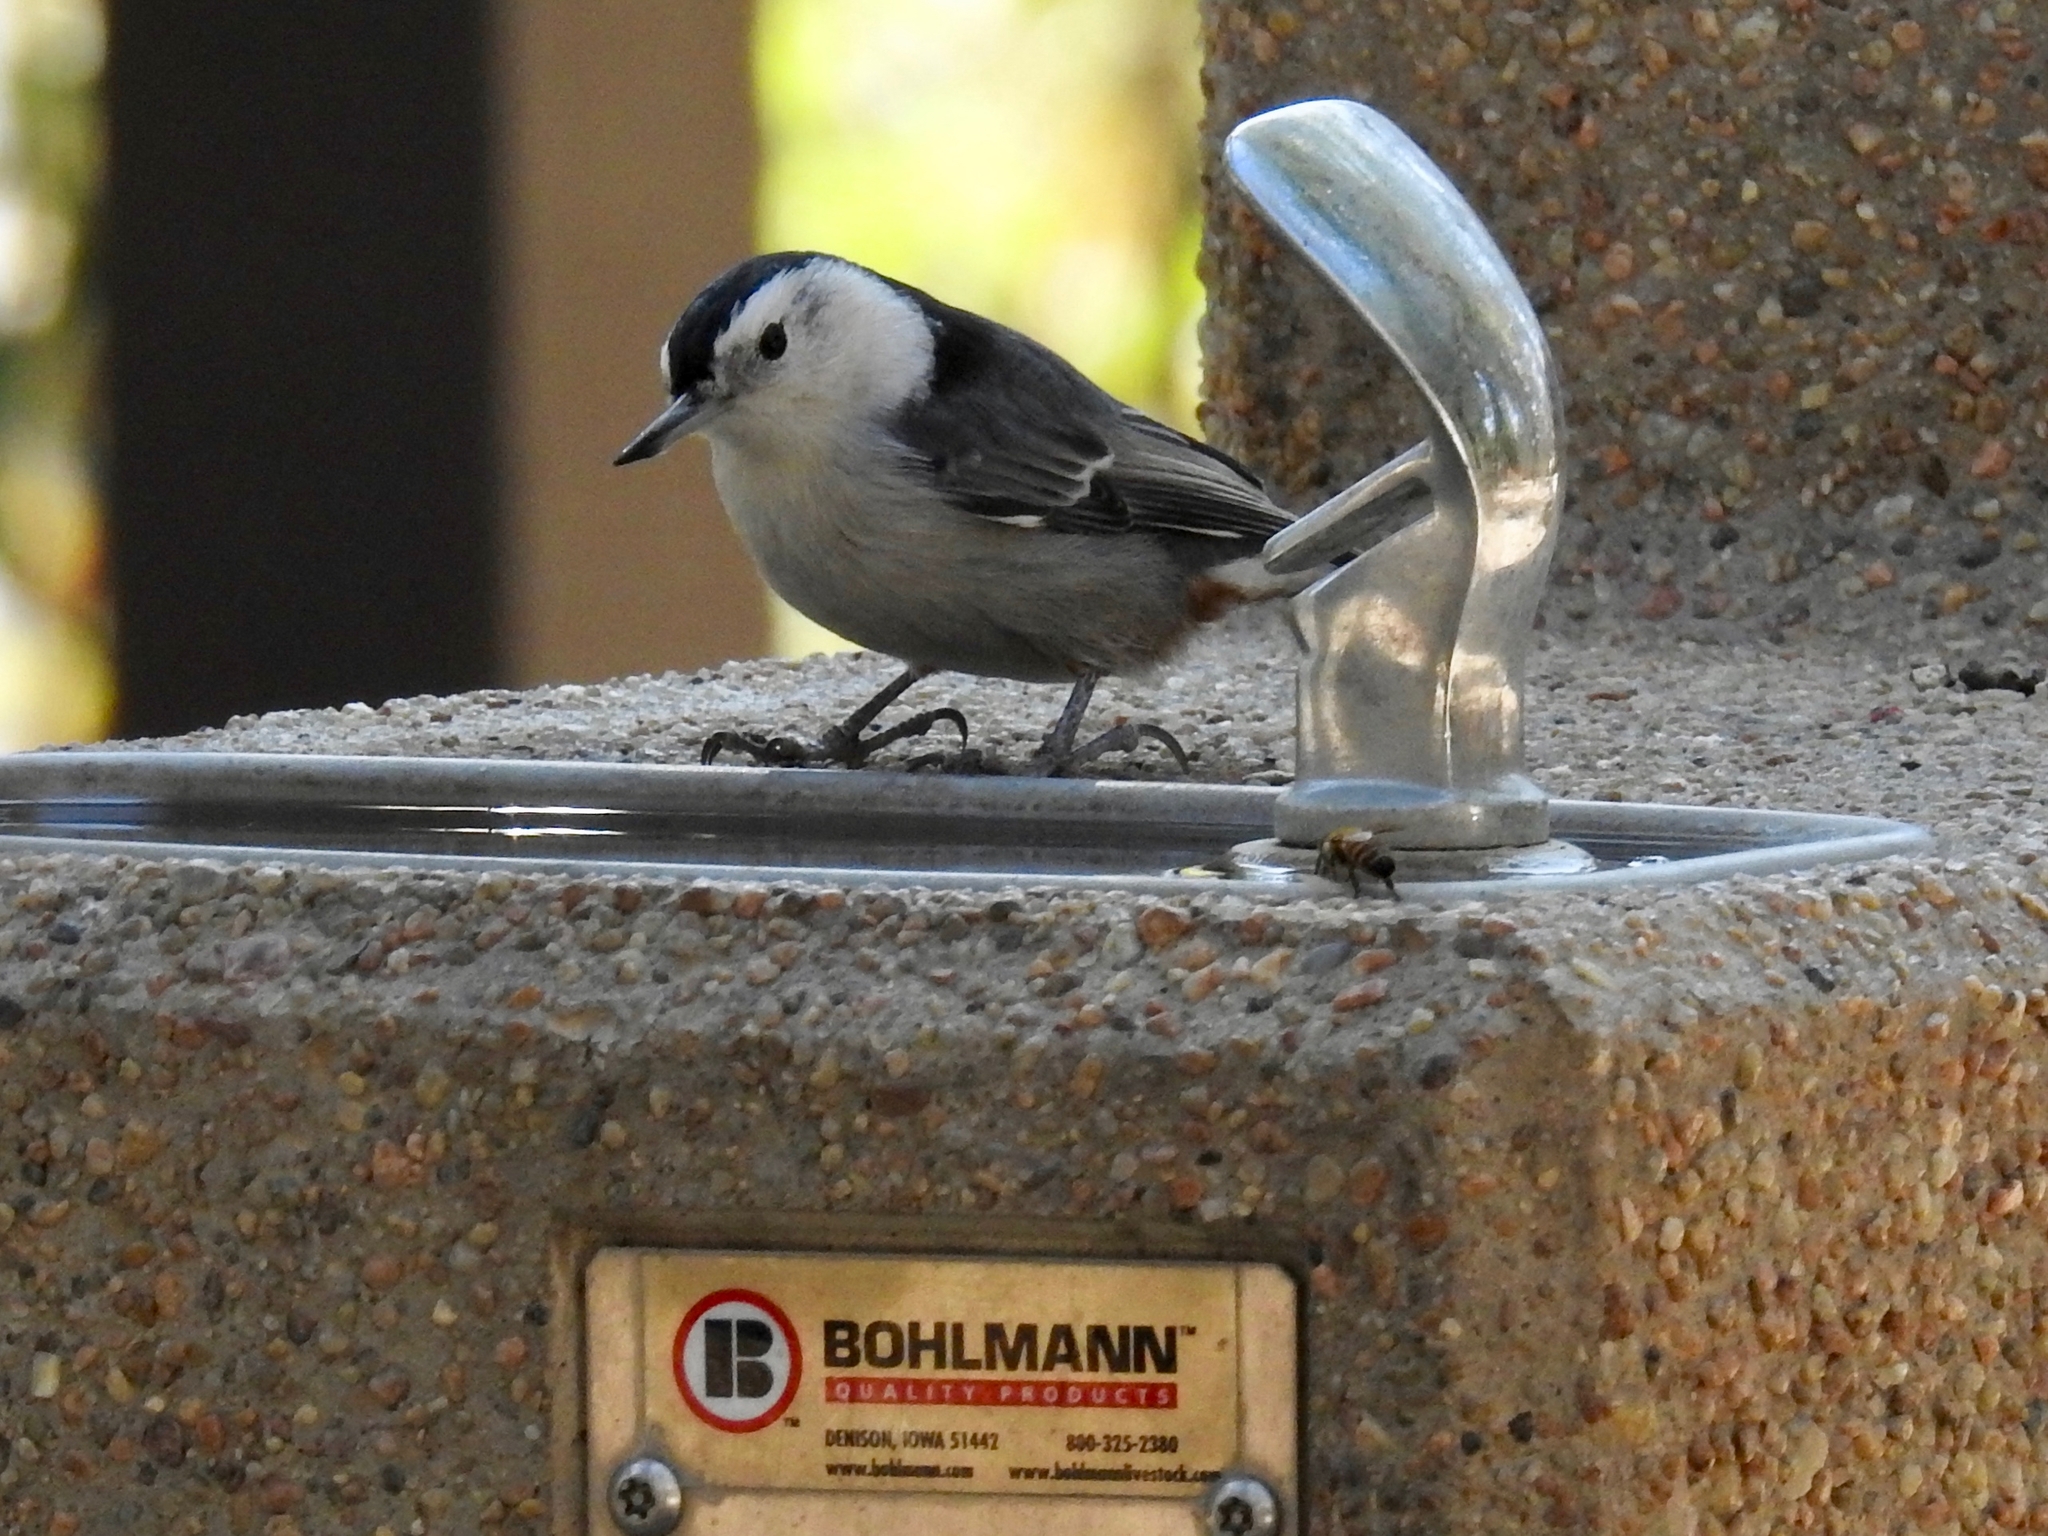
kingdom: Animalia
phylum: Chordata
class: Aves
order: Passeriformes
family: Sittidae
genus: Sitta
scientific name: Sitta carolinensis
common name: White-breasted nuthatch
